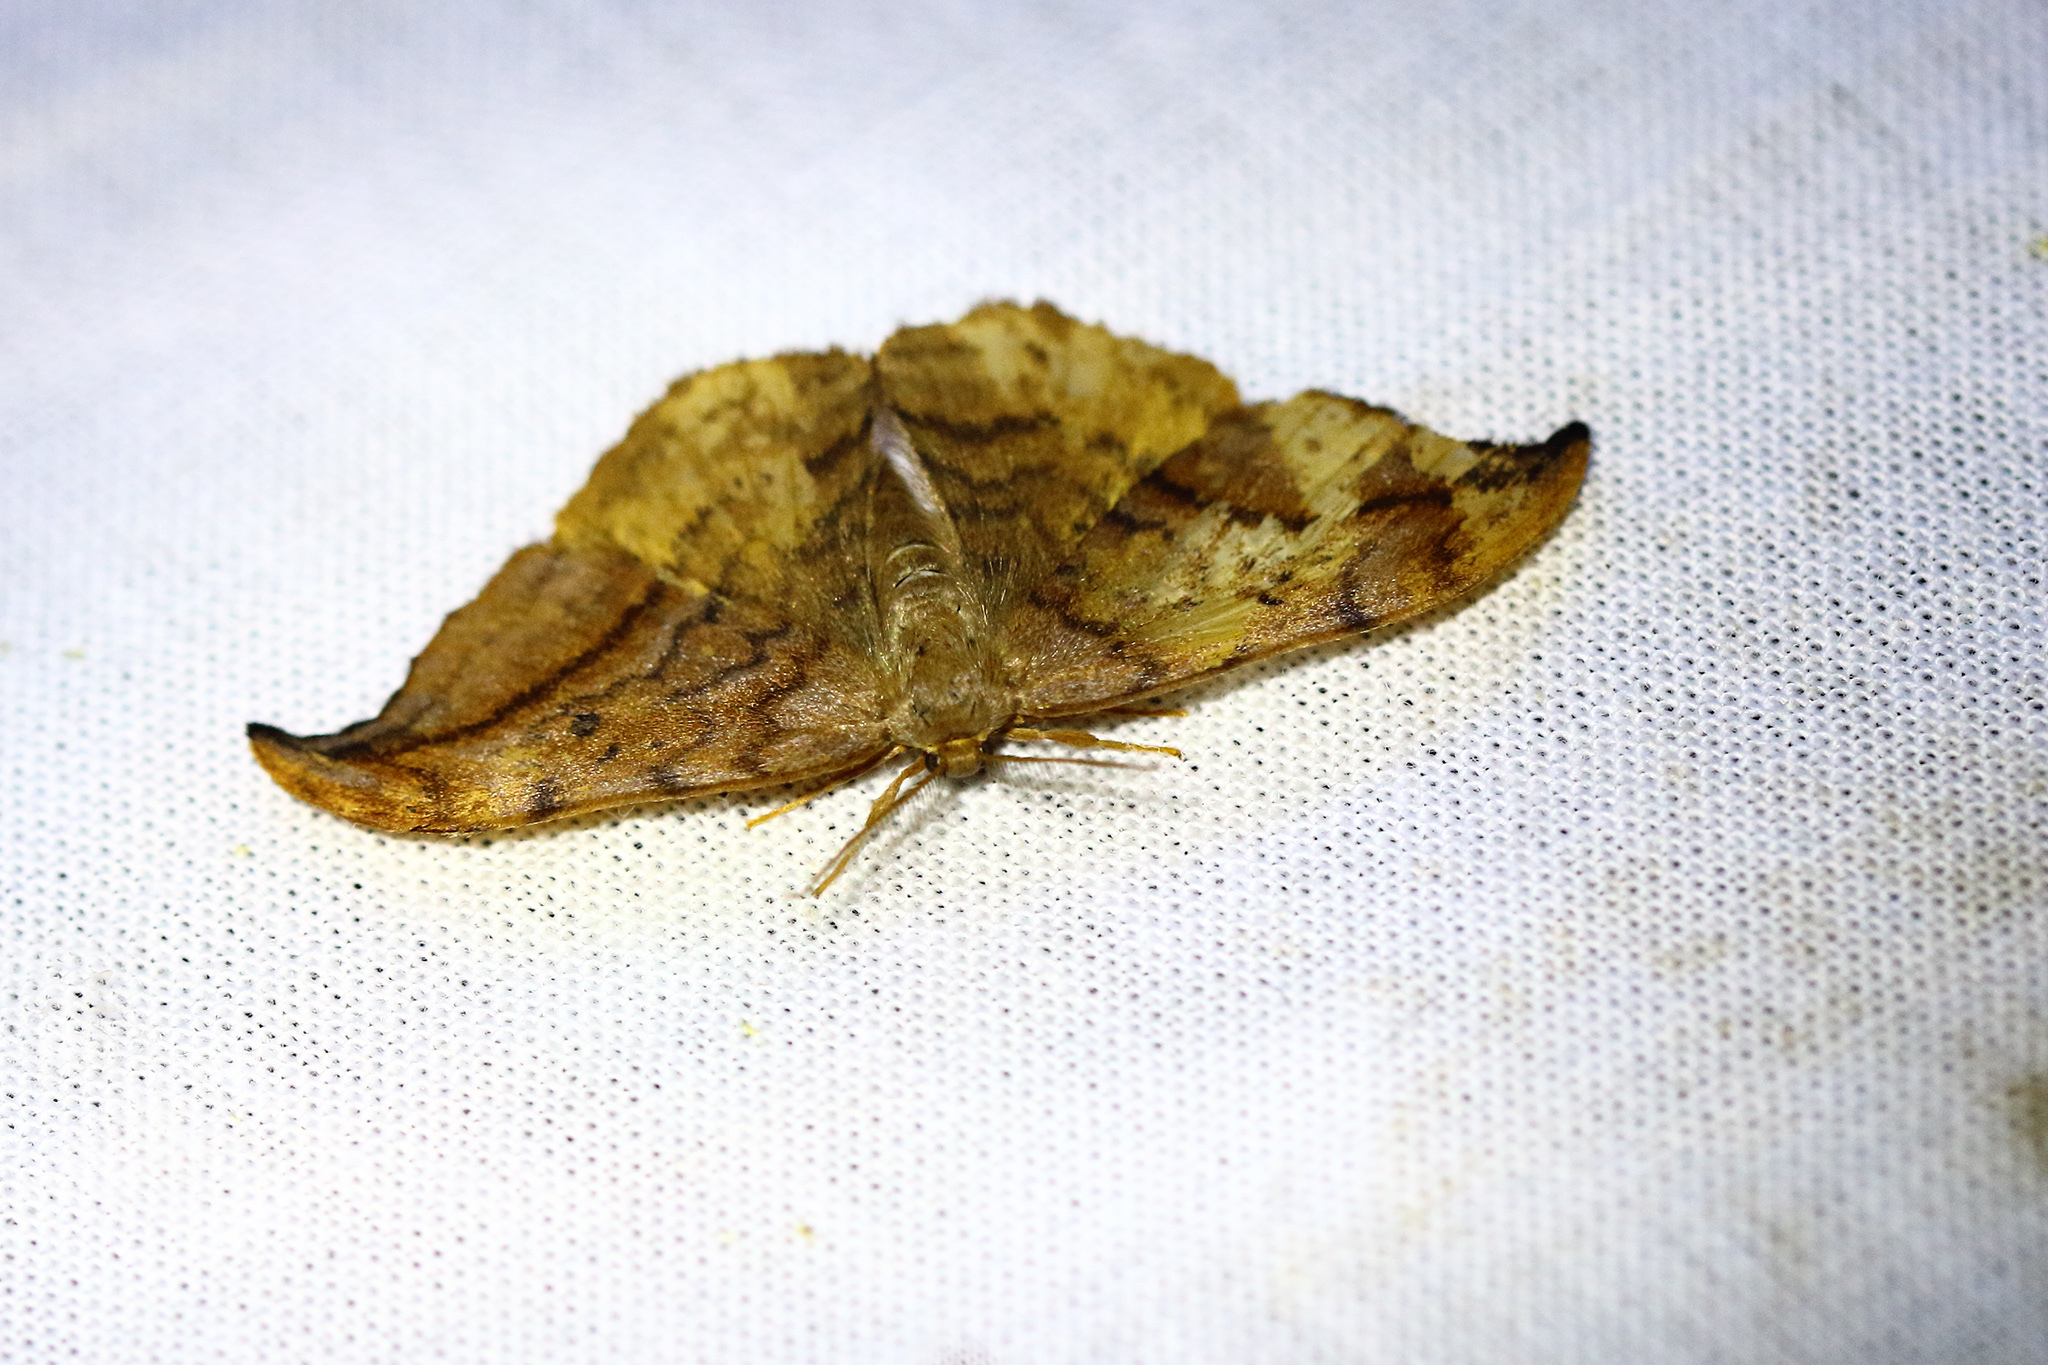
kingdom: Animalia
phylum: Arthropoda
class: Insecta
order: Lepidoptera
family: Drepanidae
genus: Drepana
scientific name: Drepana curvatula
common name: Dusky hook-tip
